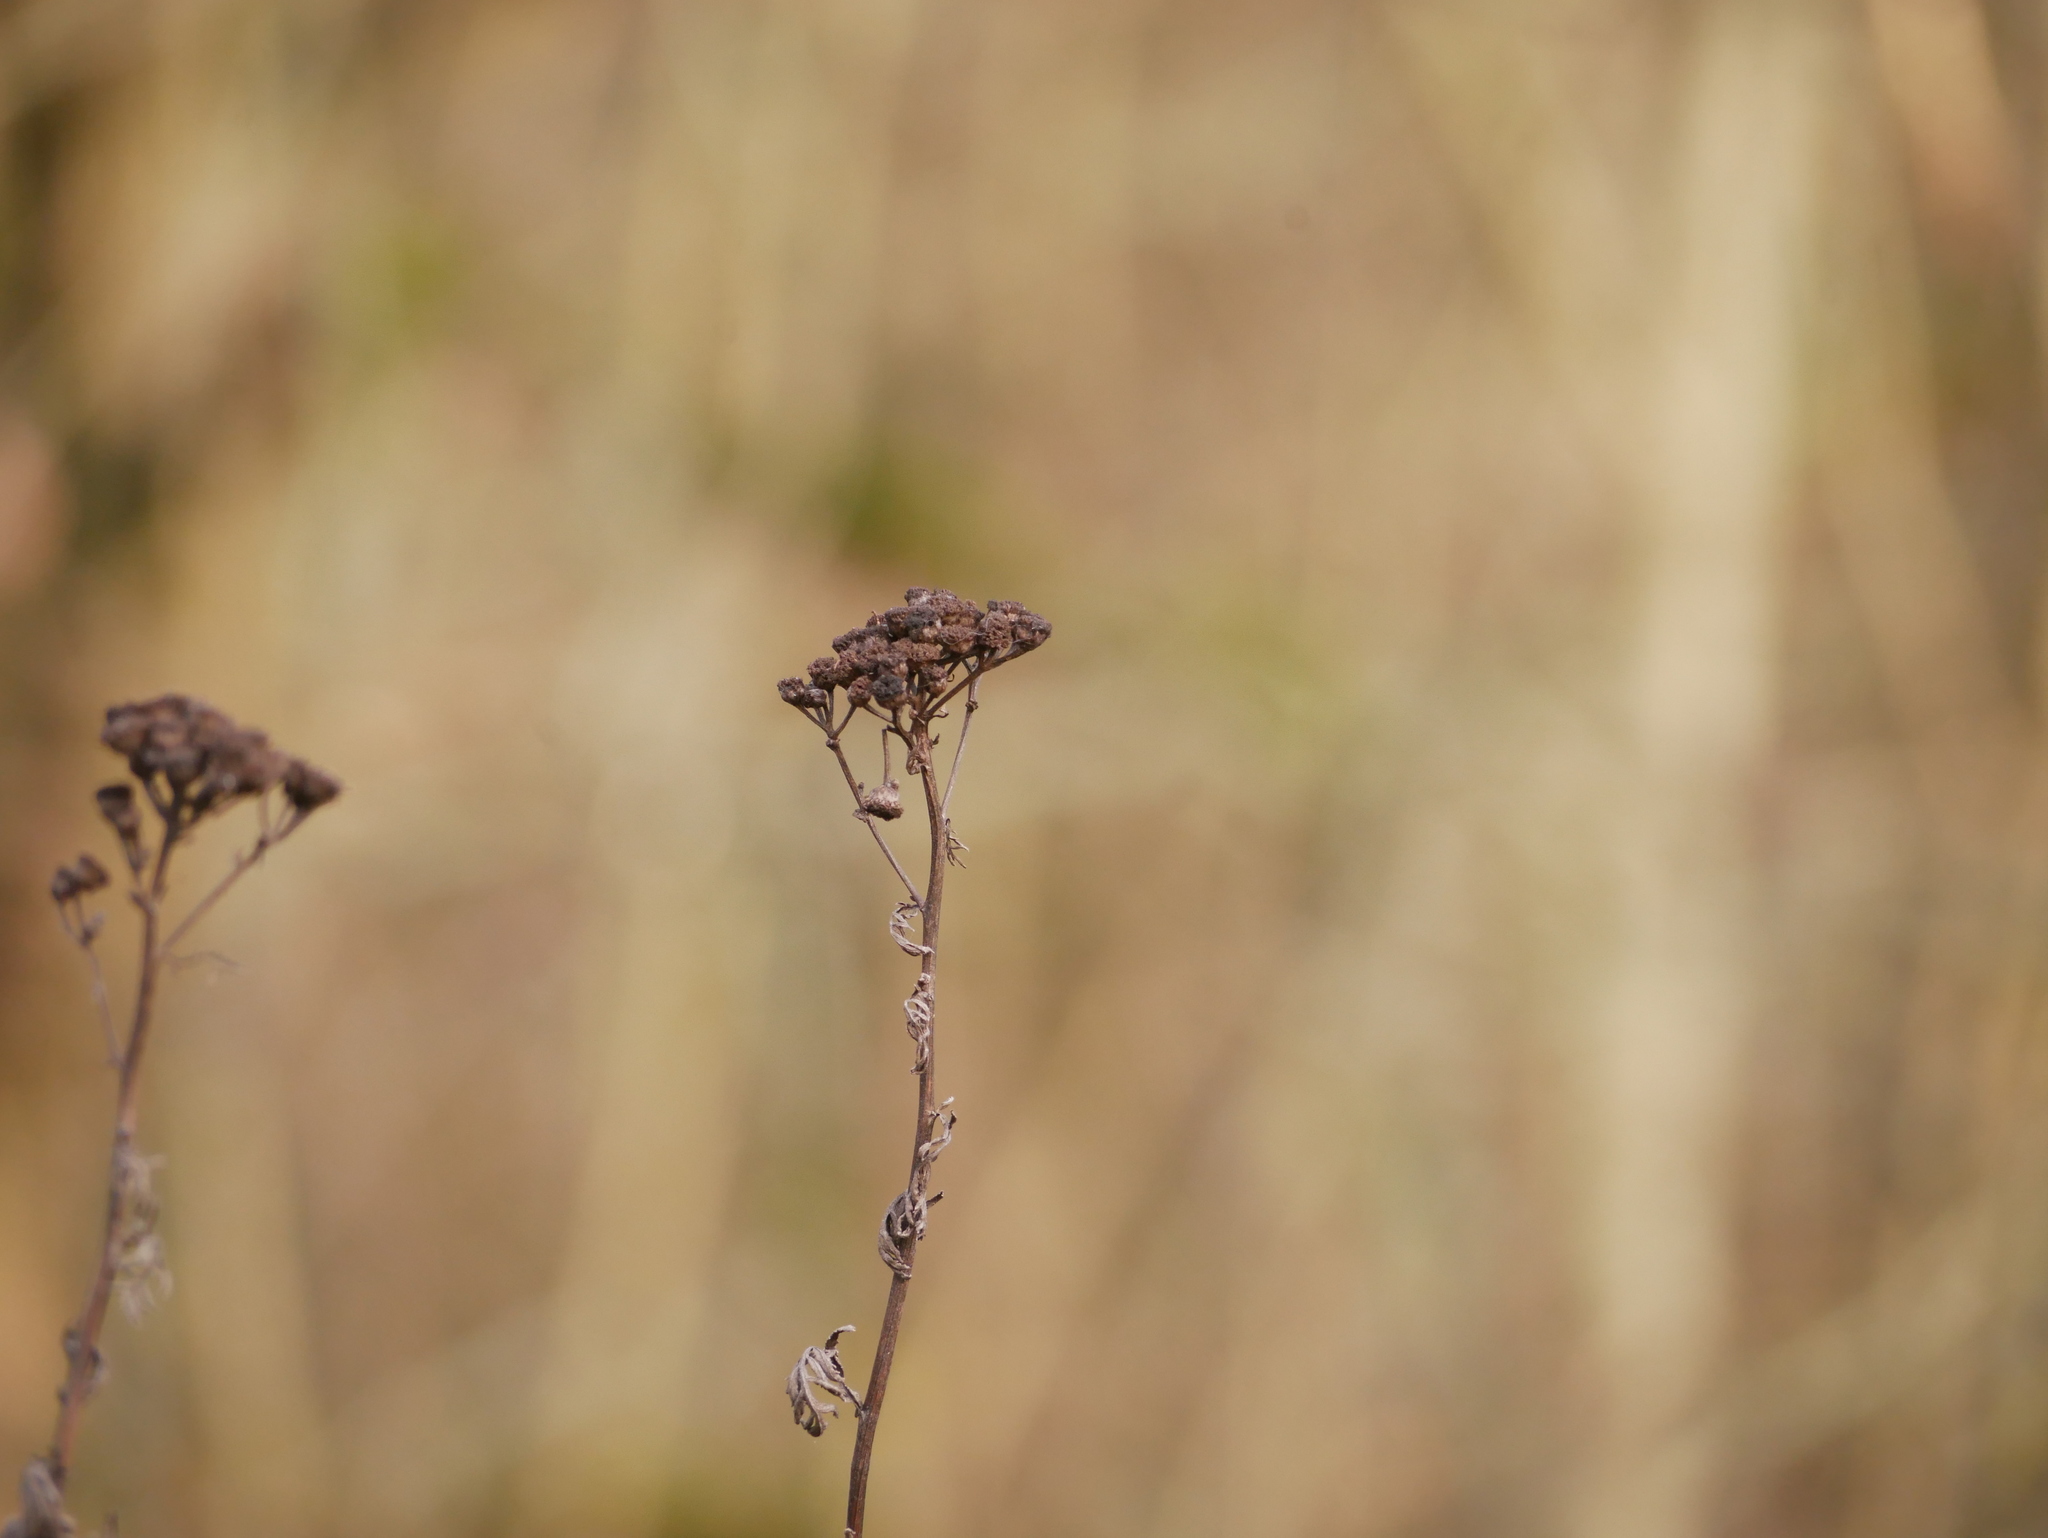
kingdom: Plantae
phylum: Tracheophyta
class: Magnoliopsida
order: Asterales
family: Asteraceae
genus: Tanacetum
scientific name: Tanacetum vulgare
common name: Common tansy
